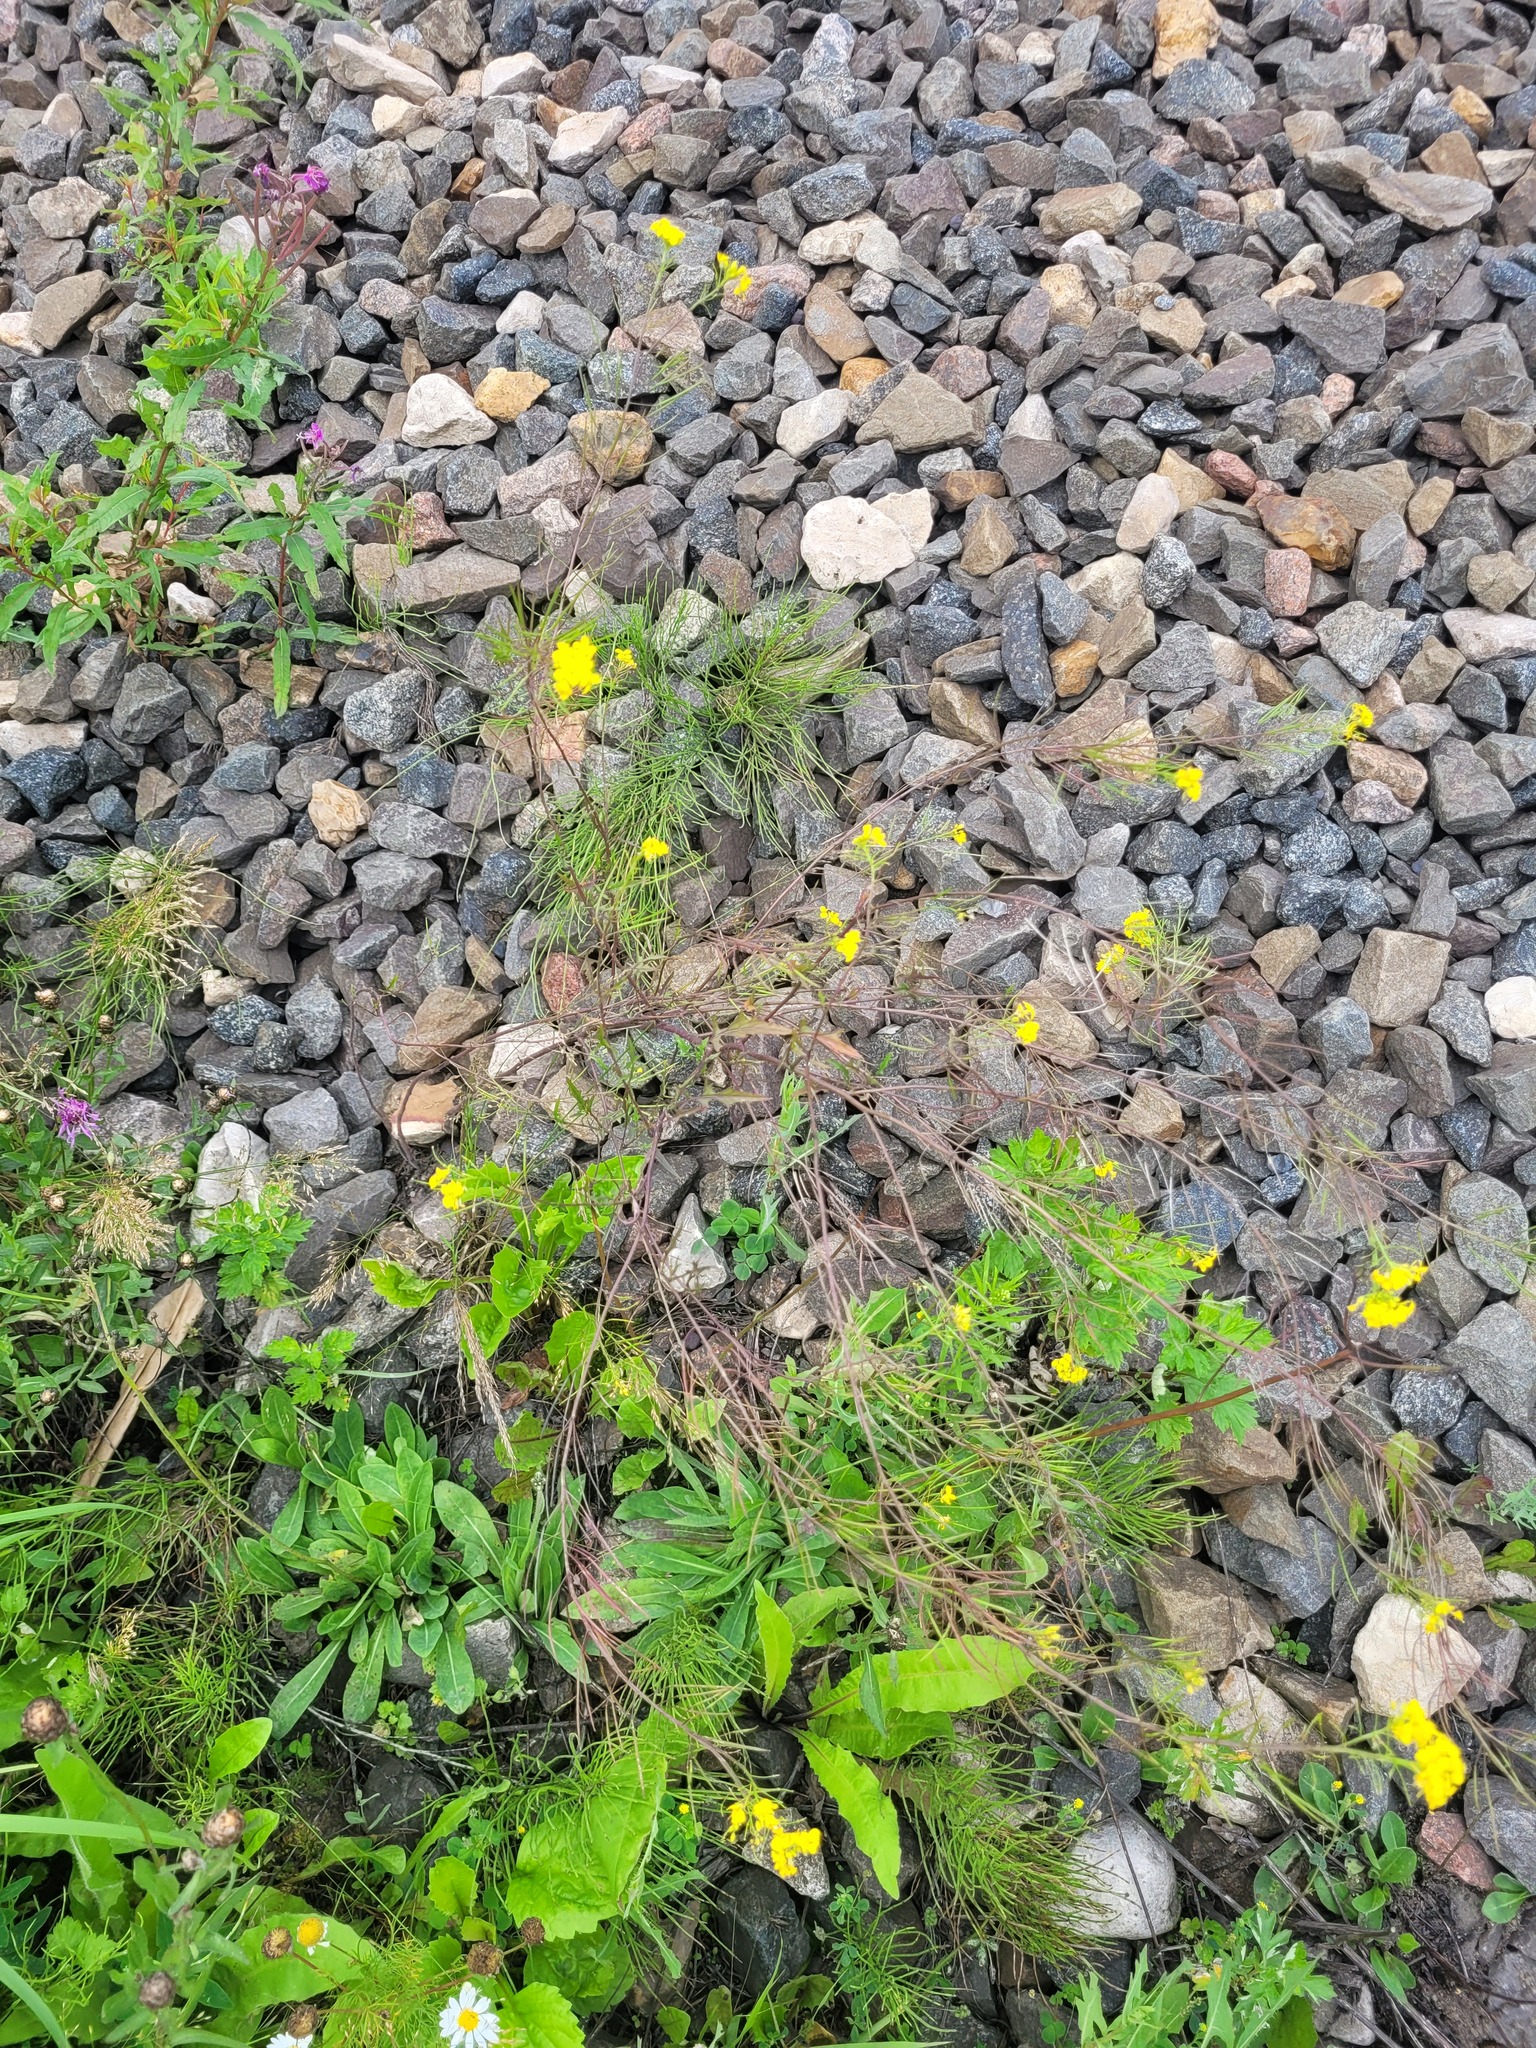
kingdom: Plantae
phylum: Tracheophyta
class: Magnoliopsida
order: Brassicales
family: Brassicaceae
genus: Sisymbrium
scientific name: Sisymbrium loeselii
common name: False london-rocket
